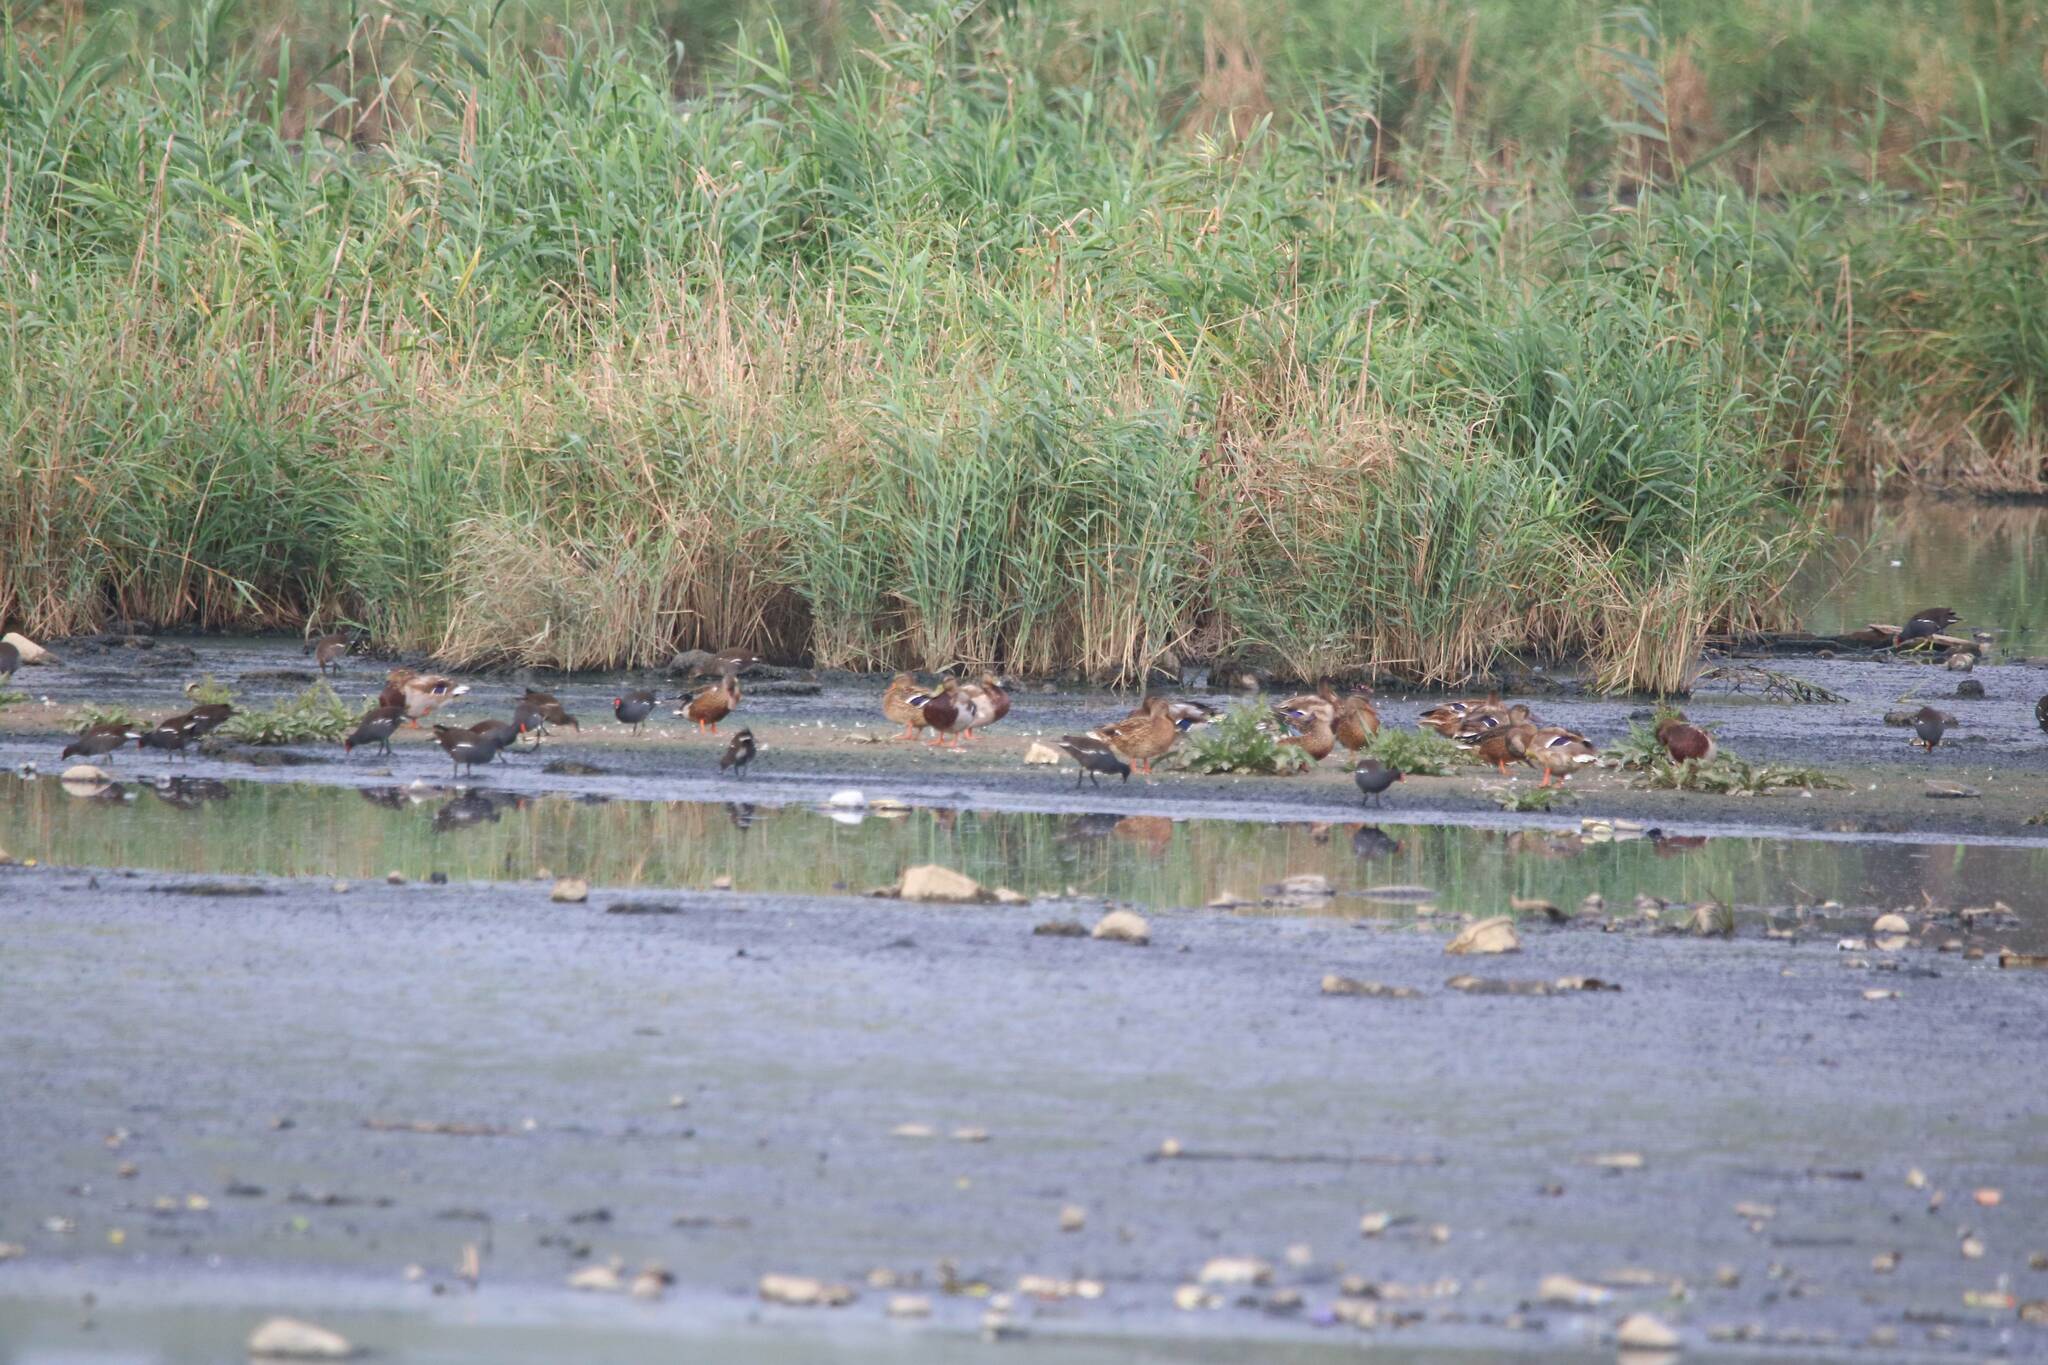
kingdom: Animalia
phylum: Chordata
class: Aves
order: Anseriformes
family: Anatidae
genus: Anas
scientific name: Anas platyrhynchos
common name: Mallard
